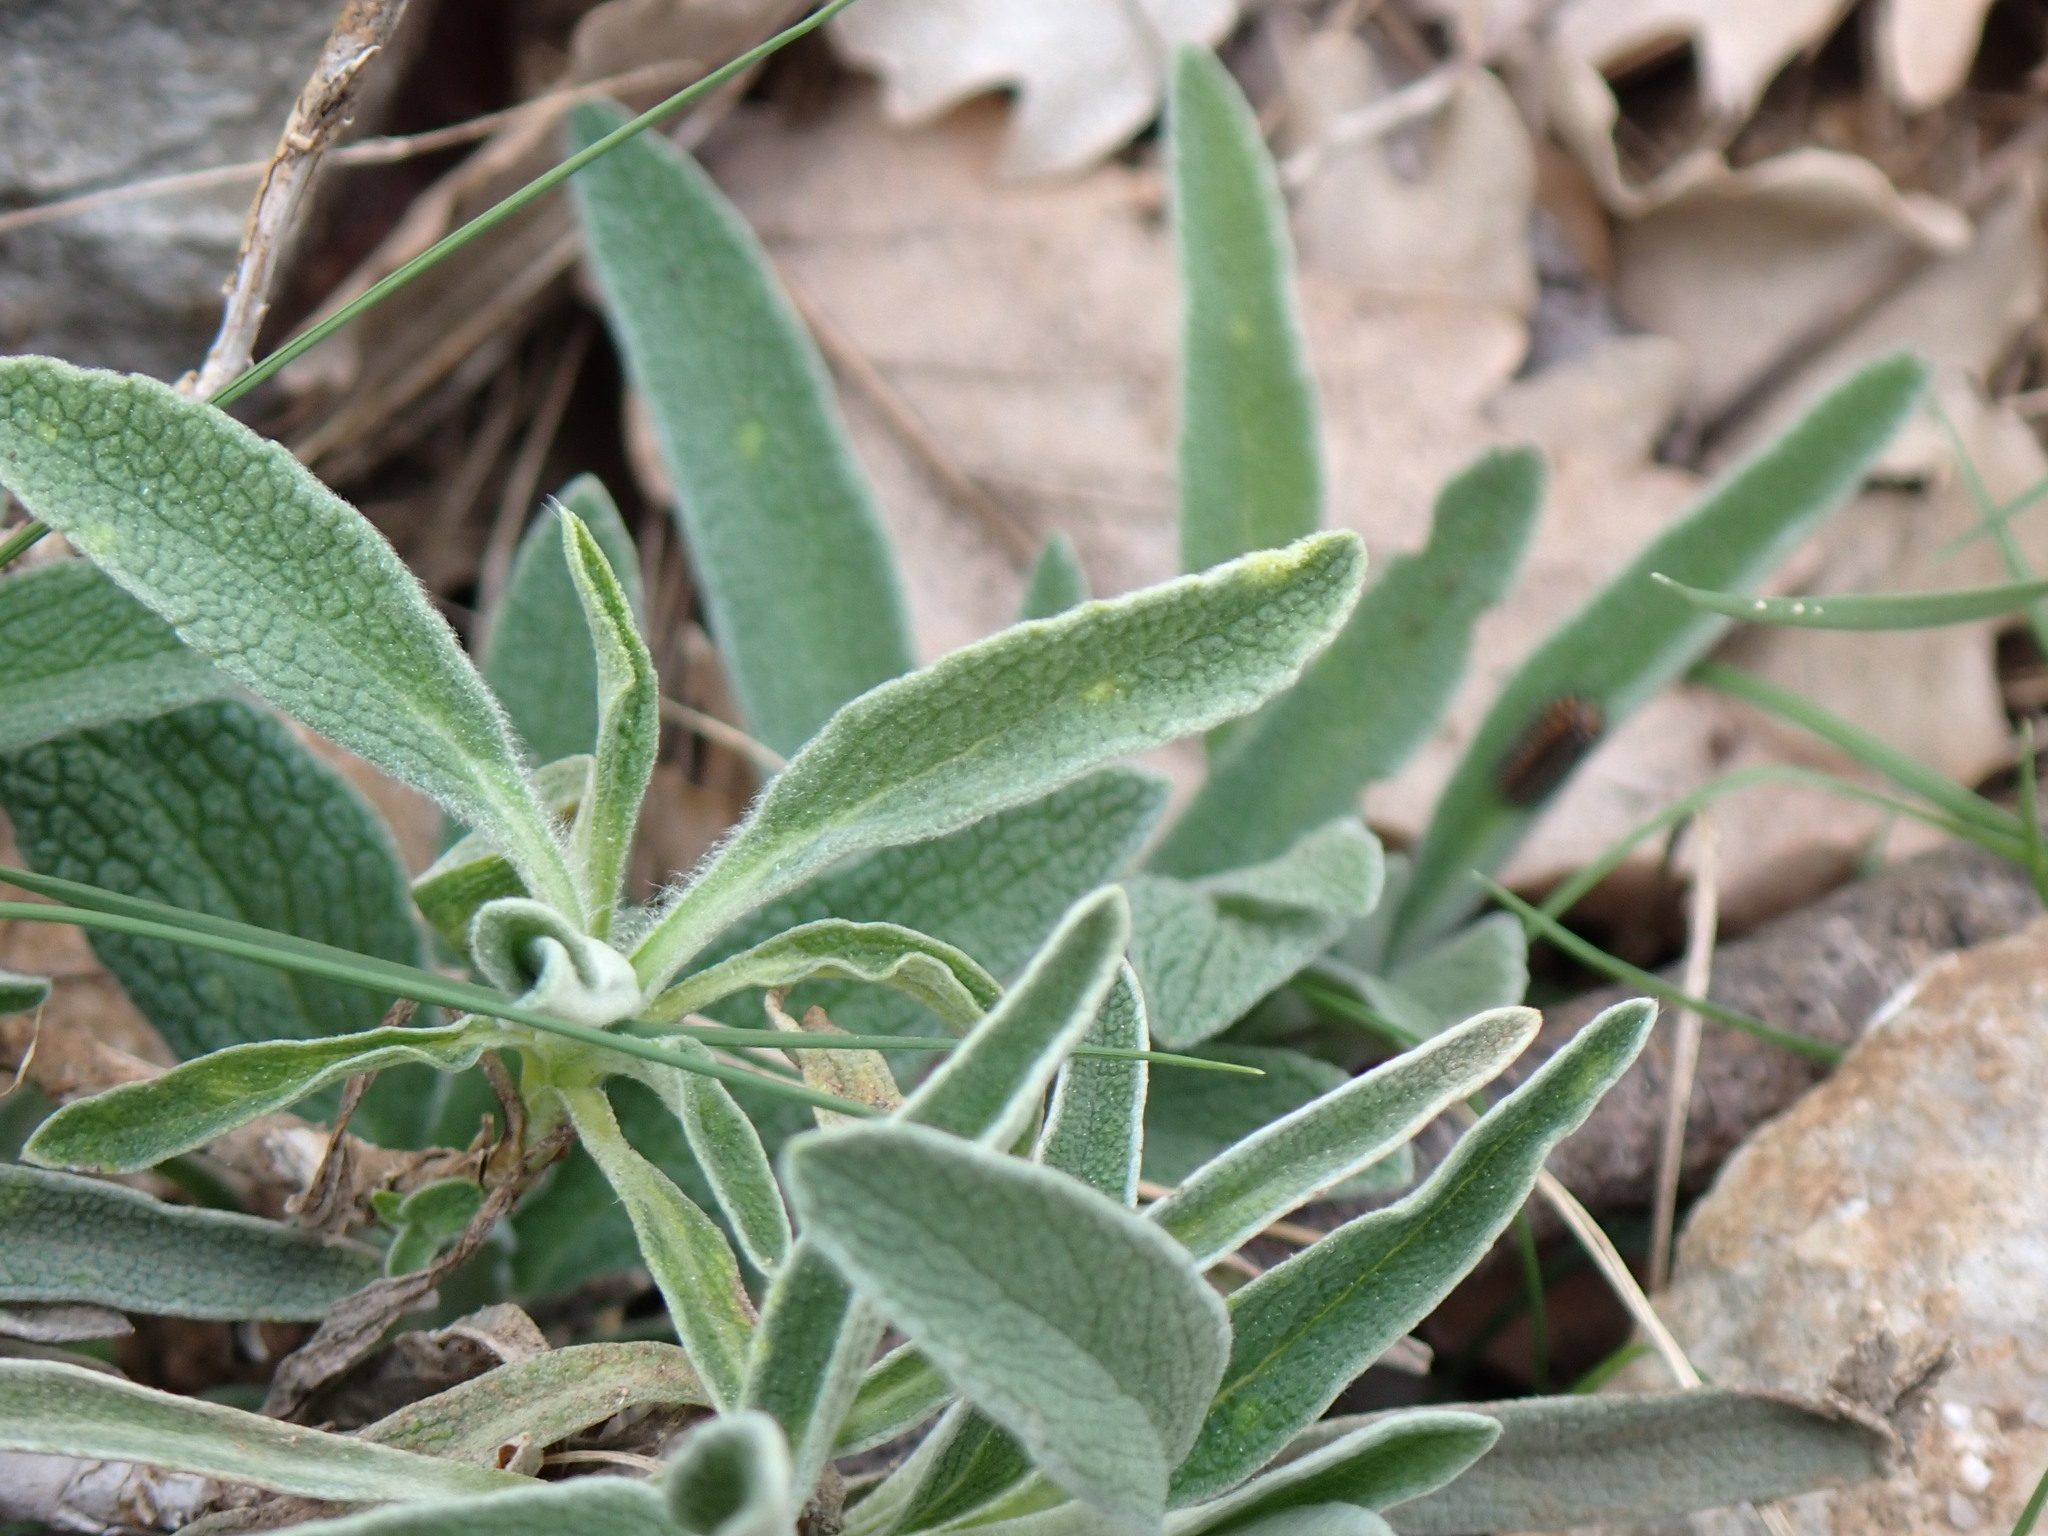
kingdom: Plantae
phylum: Tracheophyta
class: Magnoliopsida
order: Lamiales
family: Lamiaceae
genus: Phlomis
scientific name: Phlomis lychnitis
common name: Lampwickplant
